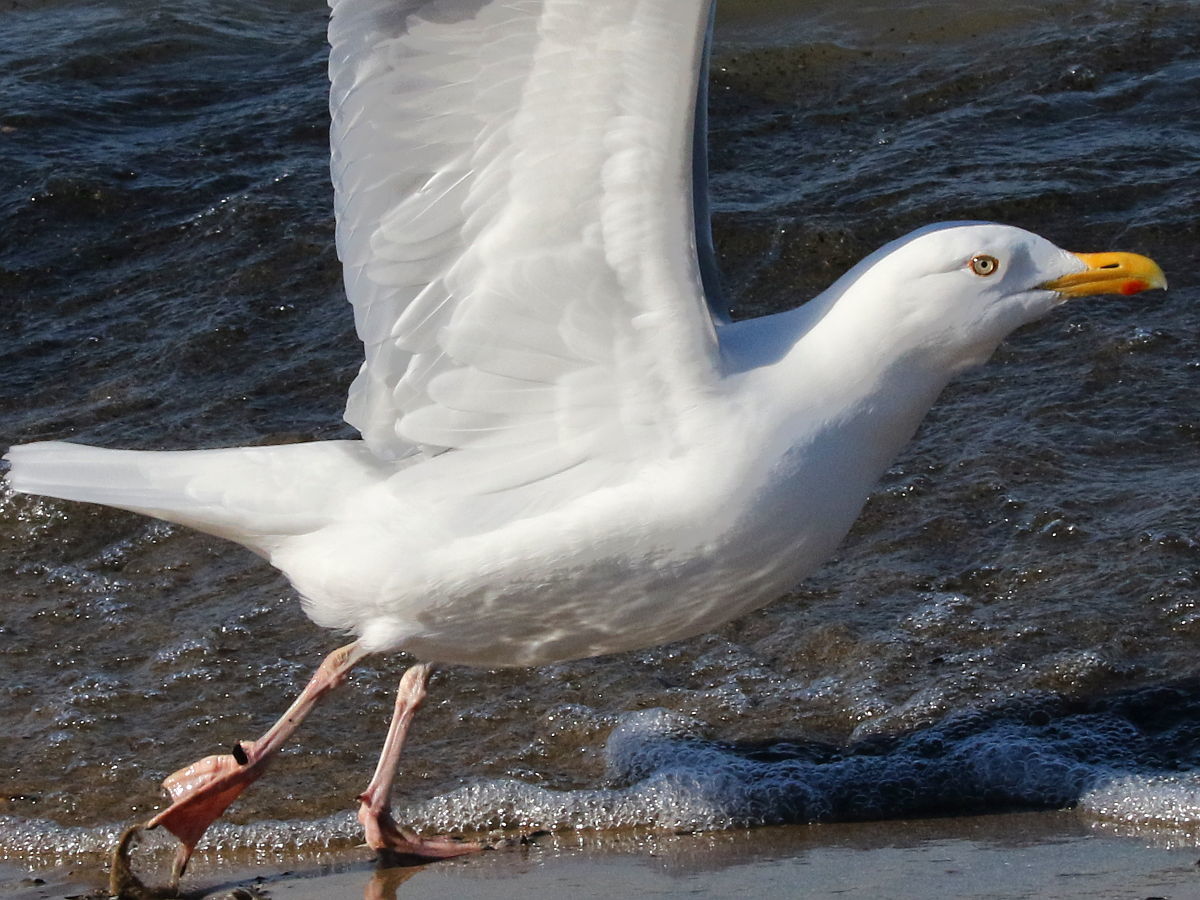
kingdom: Animalia
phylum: Chordata
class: Aves
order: Charadriiformes
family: Laridae
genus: Larus
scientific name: Larus argentatus
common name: Herring gull
